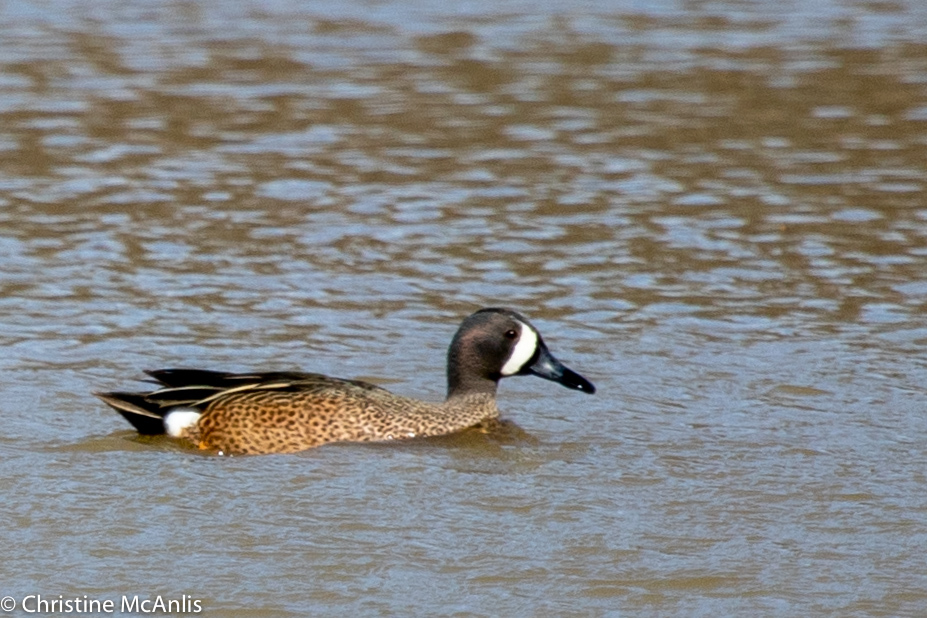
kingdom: Animalia
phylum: Chordata
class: Aves
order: Anseriformes
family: Anatidae
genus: Spatula
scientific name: Spatula discors
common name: Blue-winged teal
